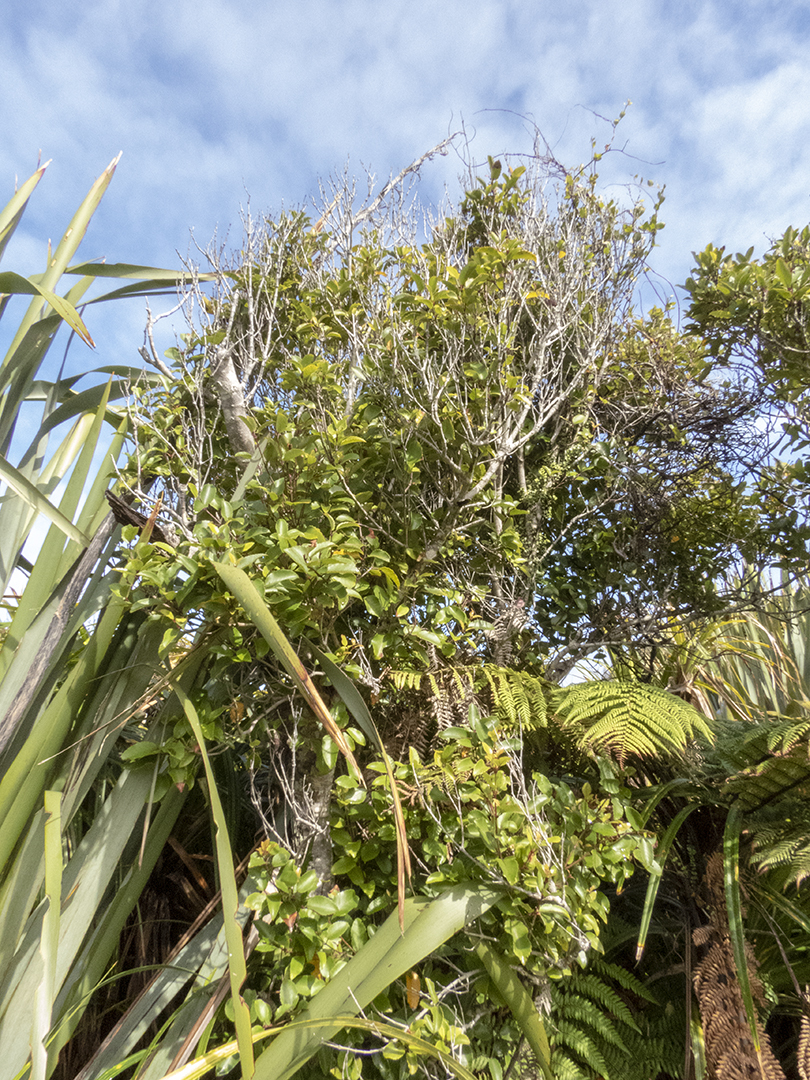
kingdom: Plantae
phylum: Tracheophyta
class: Magnoliopsida
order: Oxalidales
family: Cunoniaceae
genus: Pterophylla
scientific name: Pterophylla racemosa
